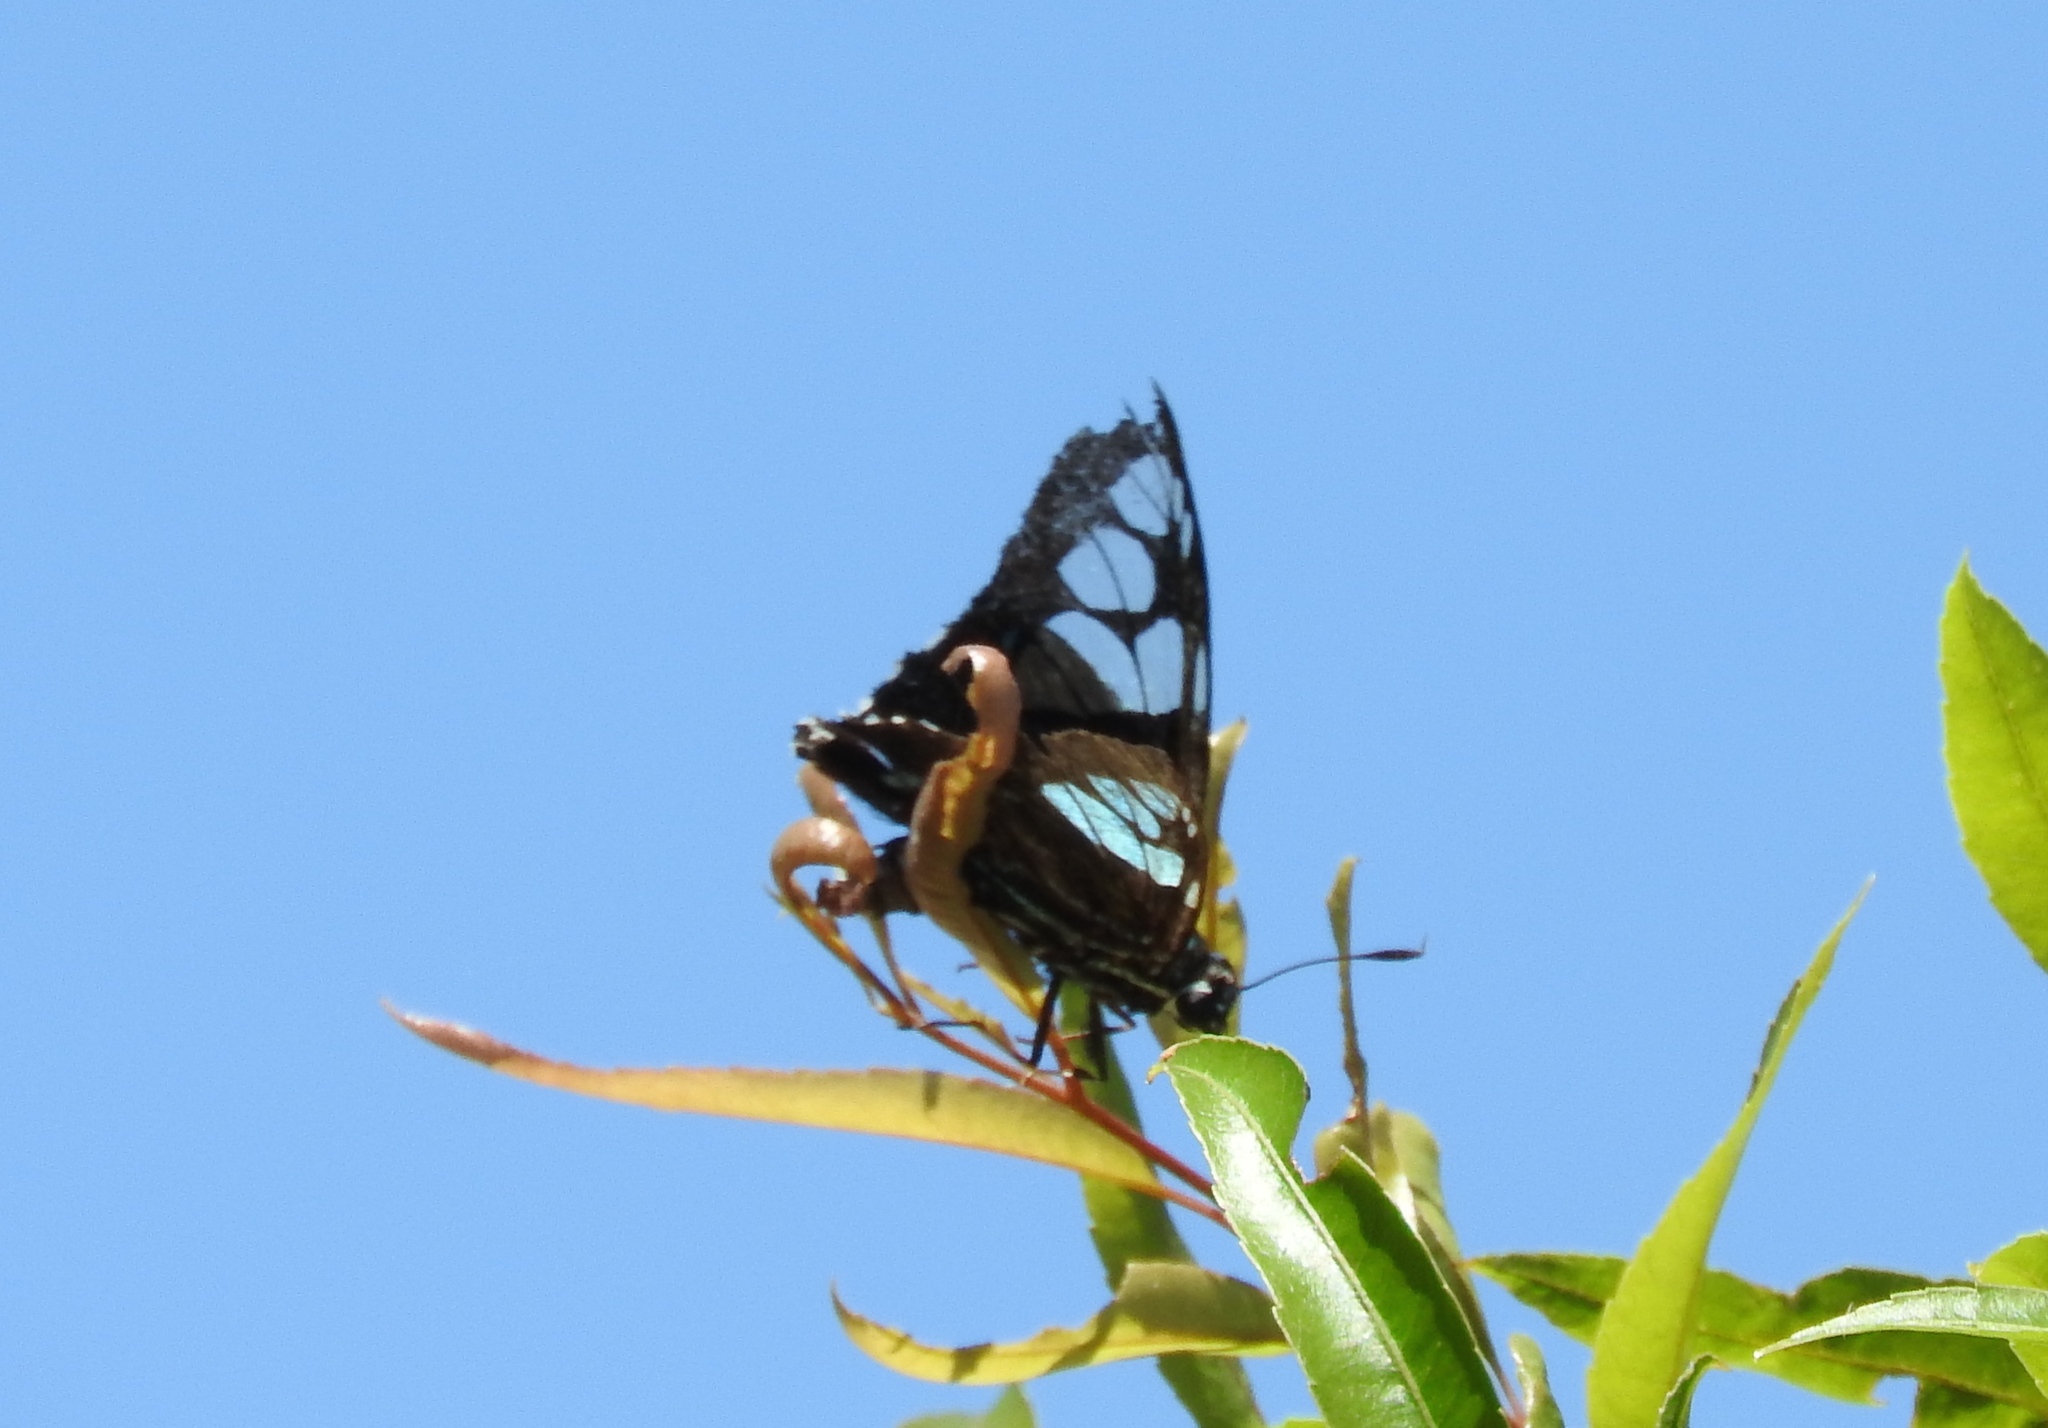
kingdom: Animalia
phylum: Arthropoda
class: Insecta
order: Lepidoptera
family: Hesperiidae
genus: Phocides
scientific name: Phocides pigmalion
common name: Mangrove skipper
